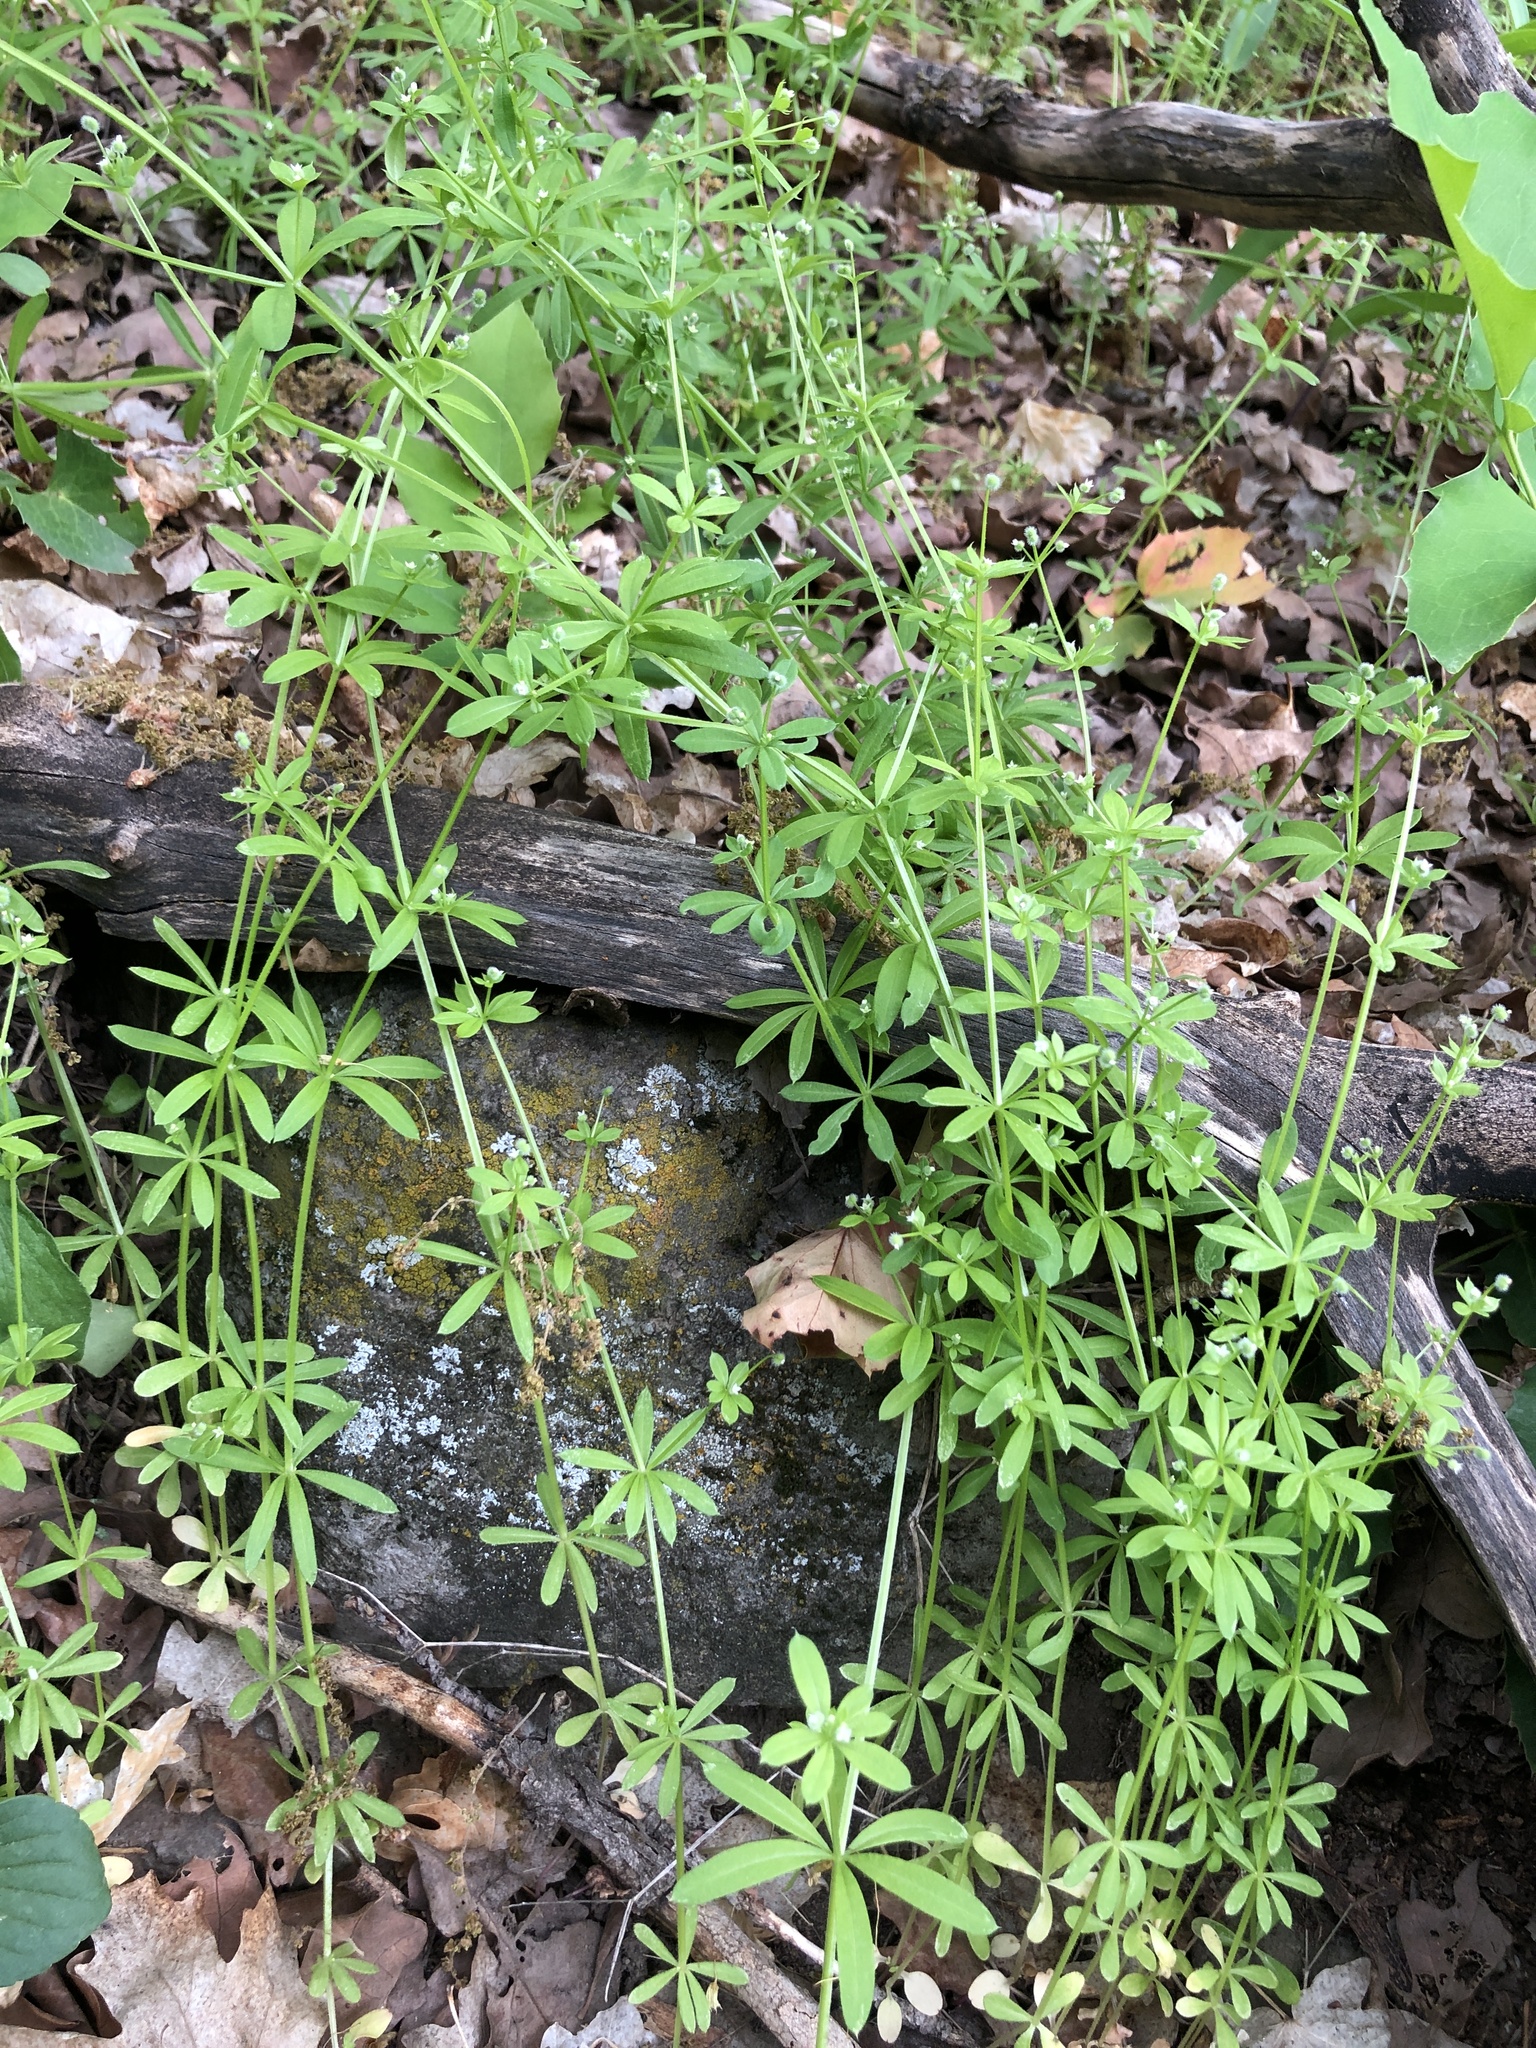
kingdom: Plantae
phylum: Tracheophyta
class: Magnoliopsida
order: Gentianales
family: Rubiaceae
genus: Galium
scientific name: Galium aparine
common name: Cleavers
